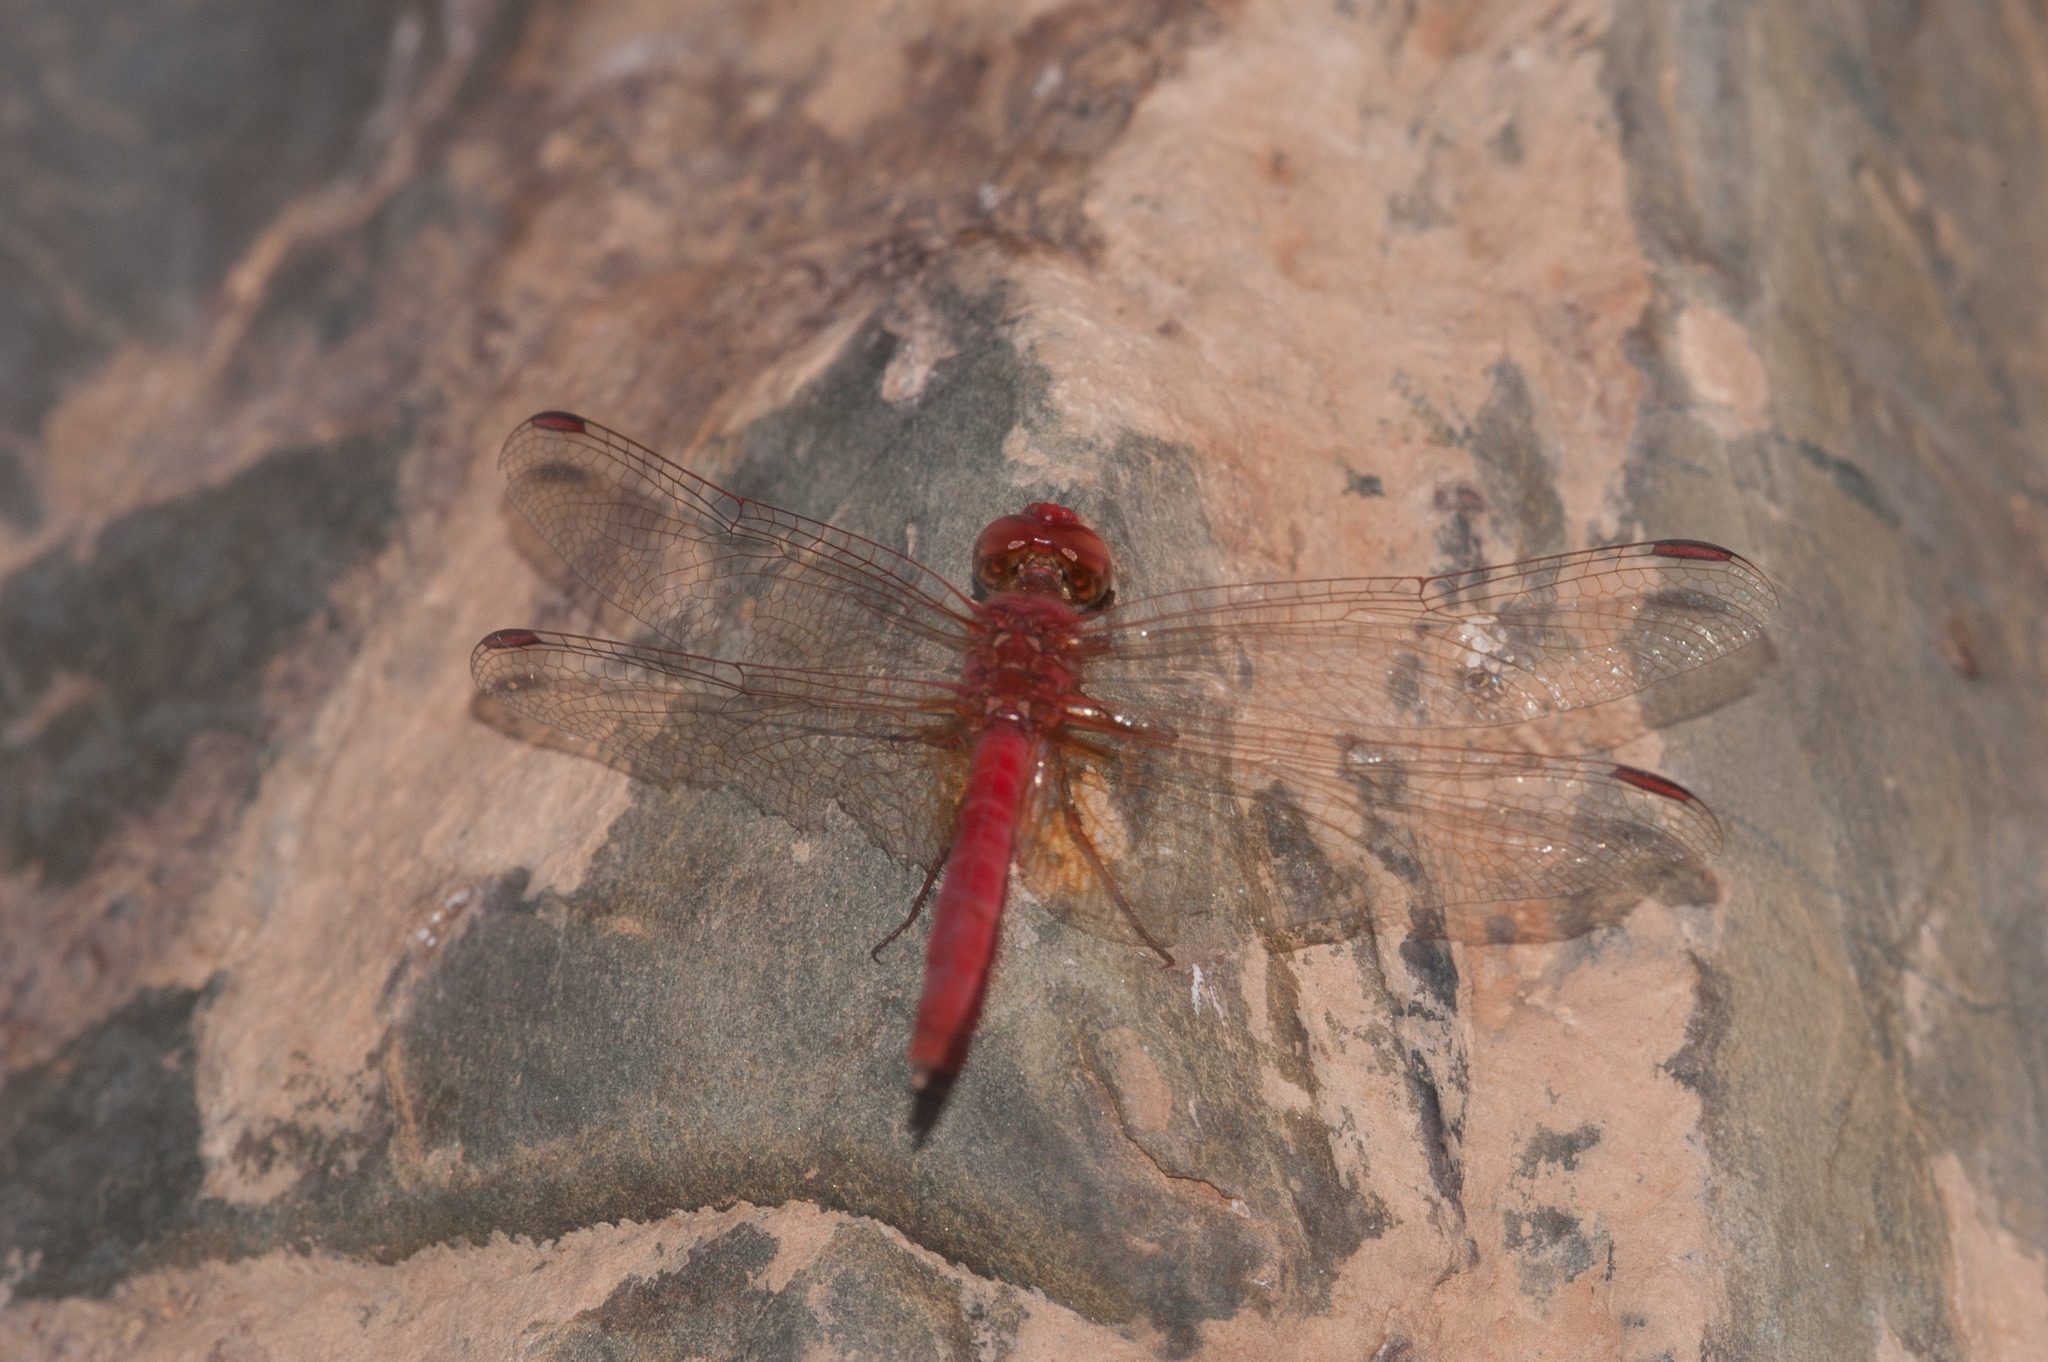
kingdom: Animalia
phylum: Arthropoda
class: Insecta
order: Odonata
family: Libellulidae
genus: Diplacodes
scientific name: Diplacodes haematodes
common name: Scarlet percher
